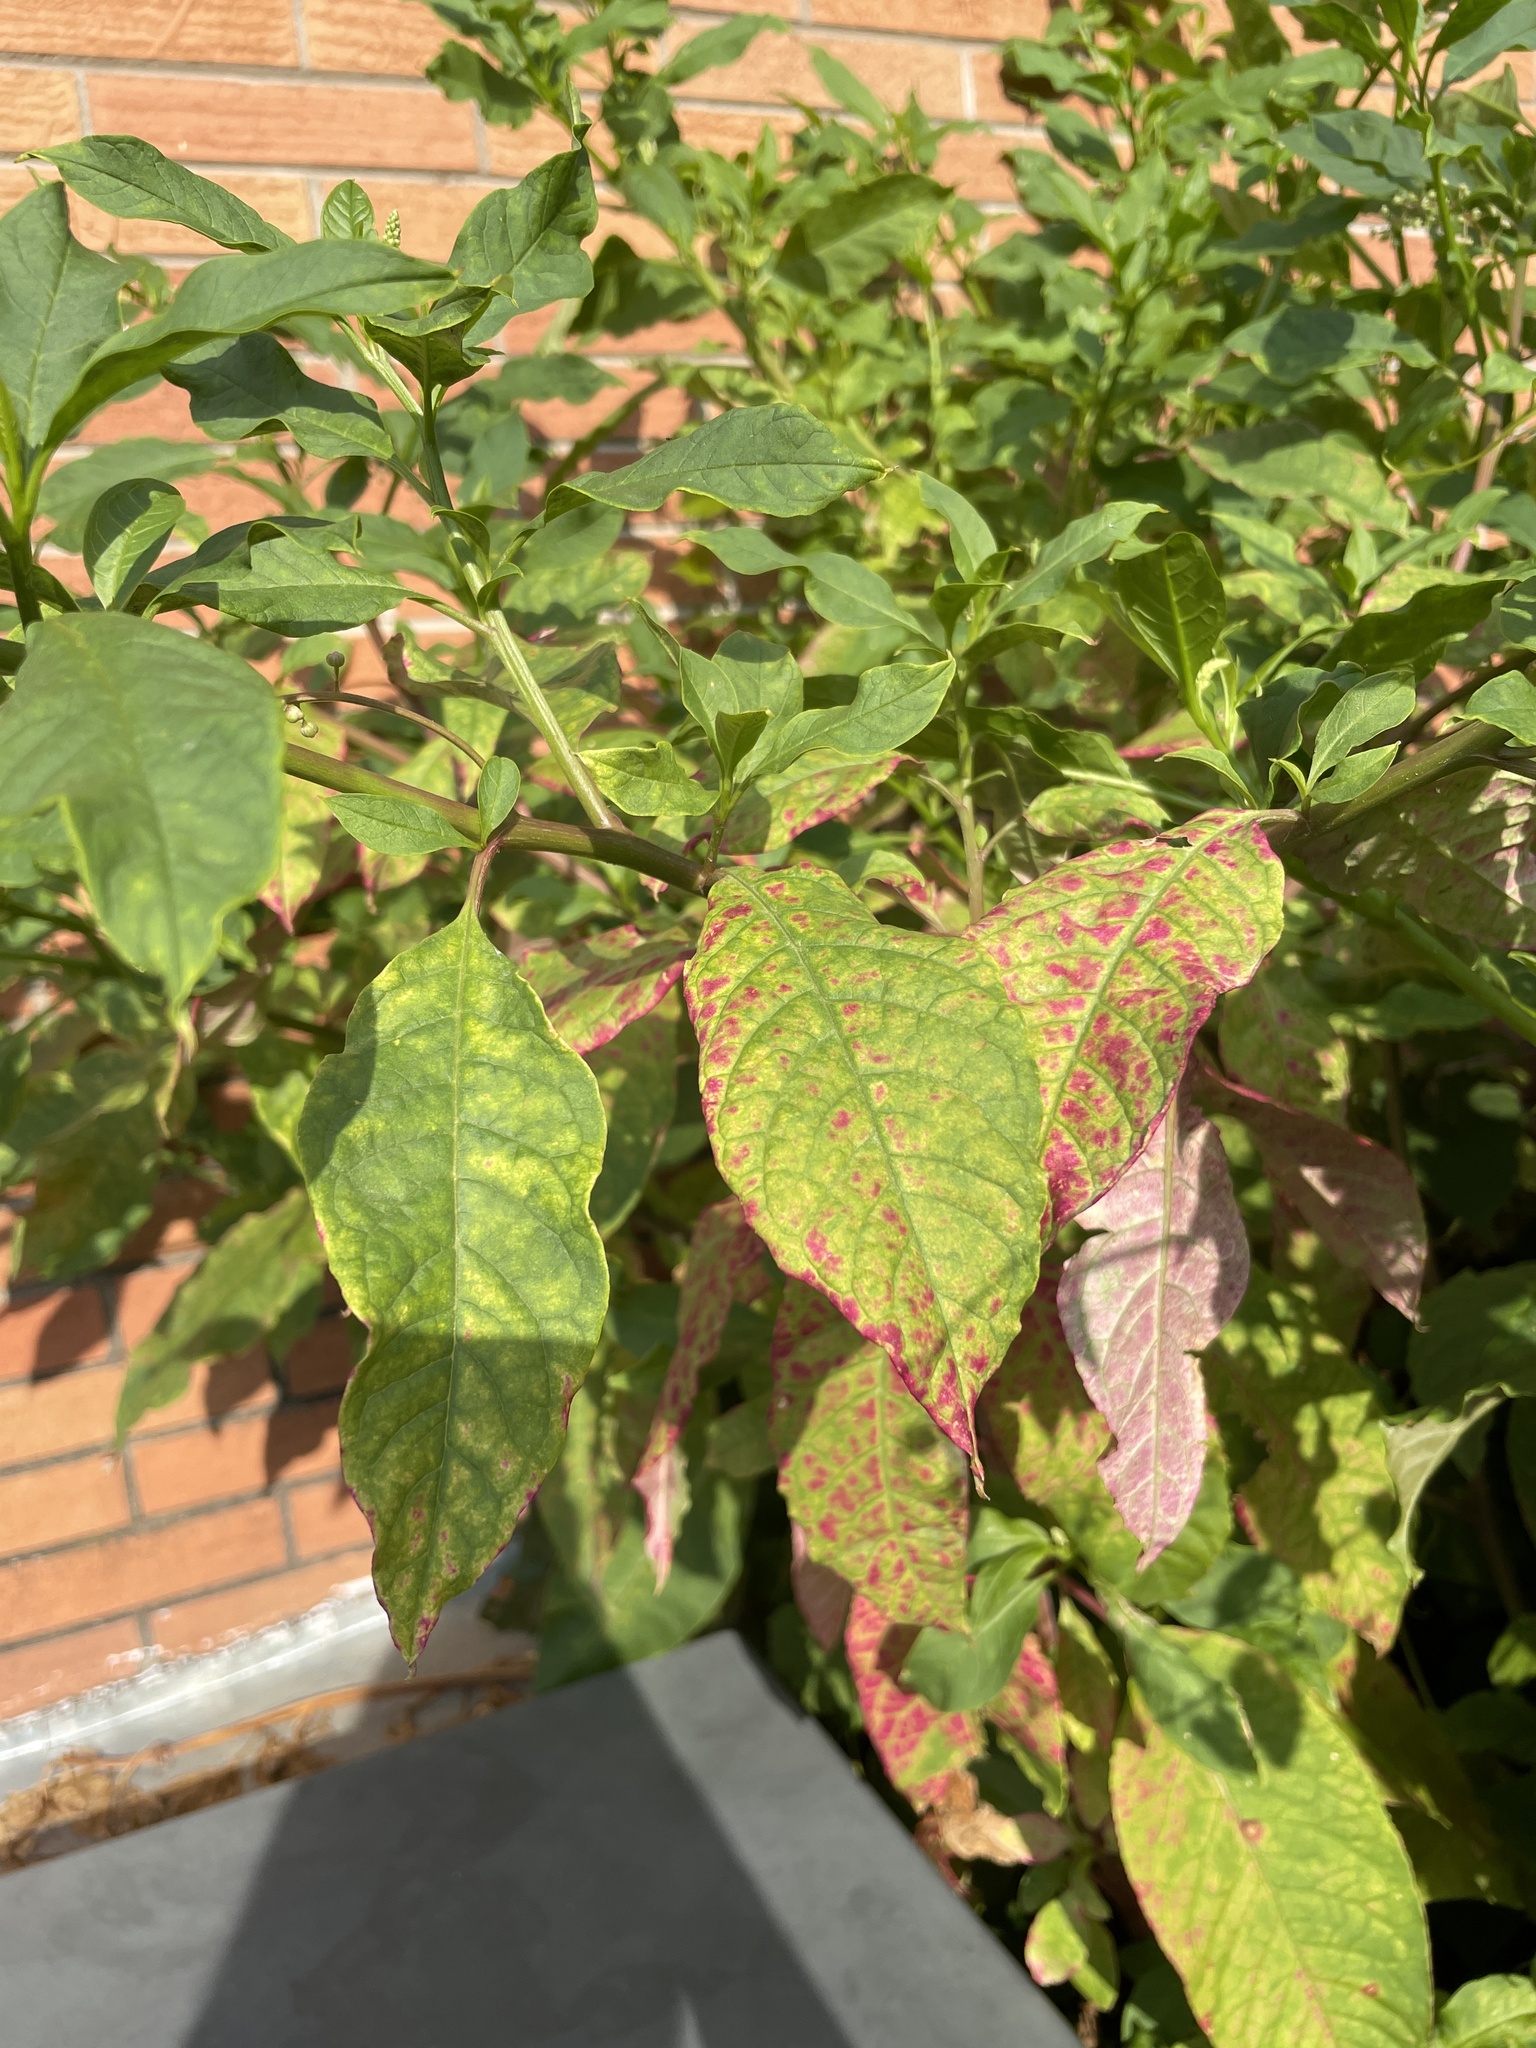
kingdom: Plantae
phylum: Tracheophyta
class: Magnoliopsida
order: Caryophyllales
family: Phytolaccaceae
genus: Phytolacca
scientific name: Phytolacca americana
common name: American pokeweed
